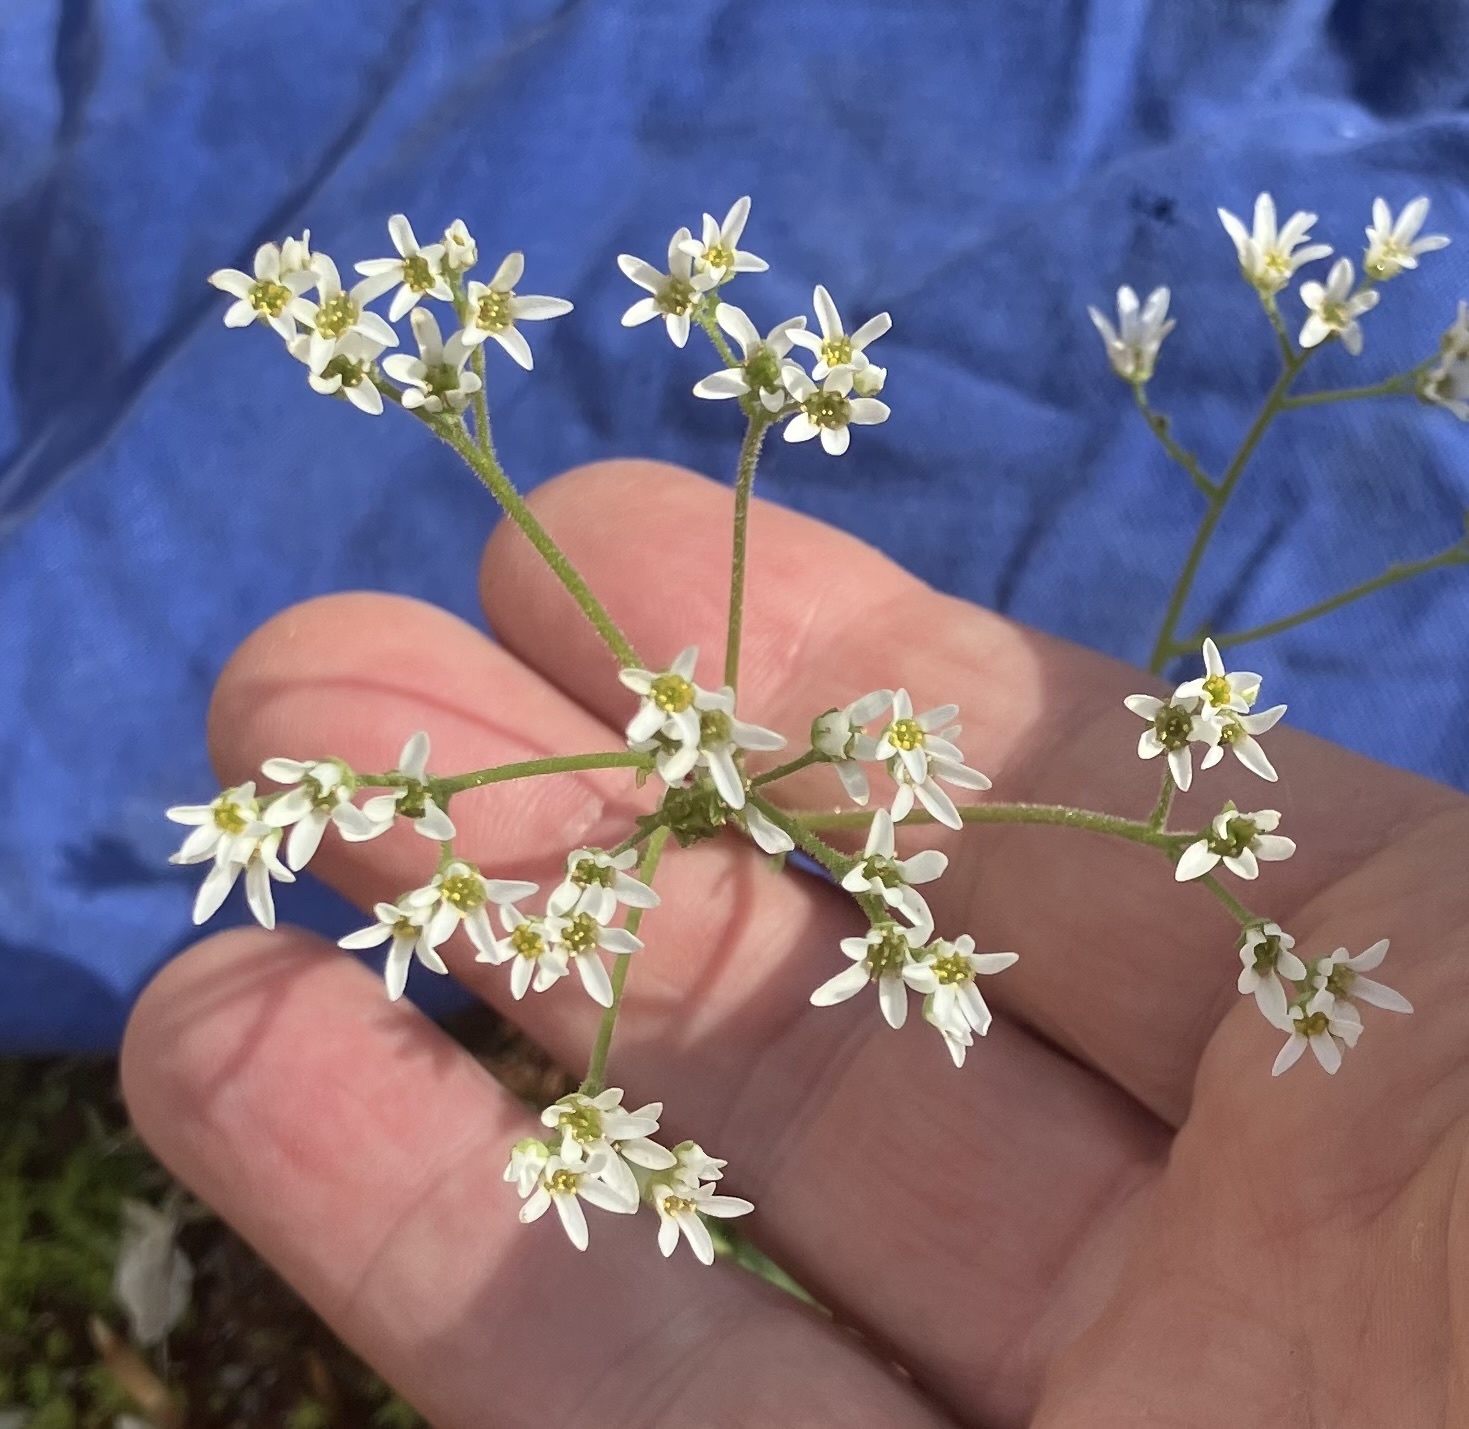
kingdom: Plantae
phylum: Tracheophyta
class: Magnoliopsida
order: Saxifragales
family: Saxifragaceae
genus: Micranthes
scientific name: Micranthes virginiensis
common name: Early saxifrage
